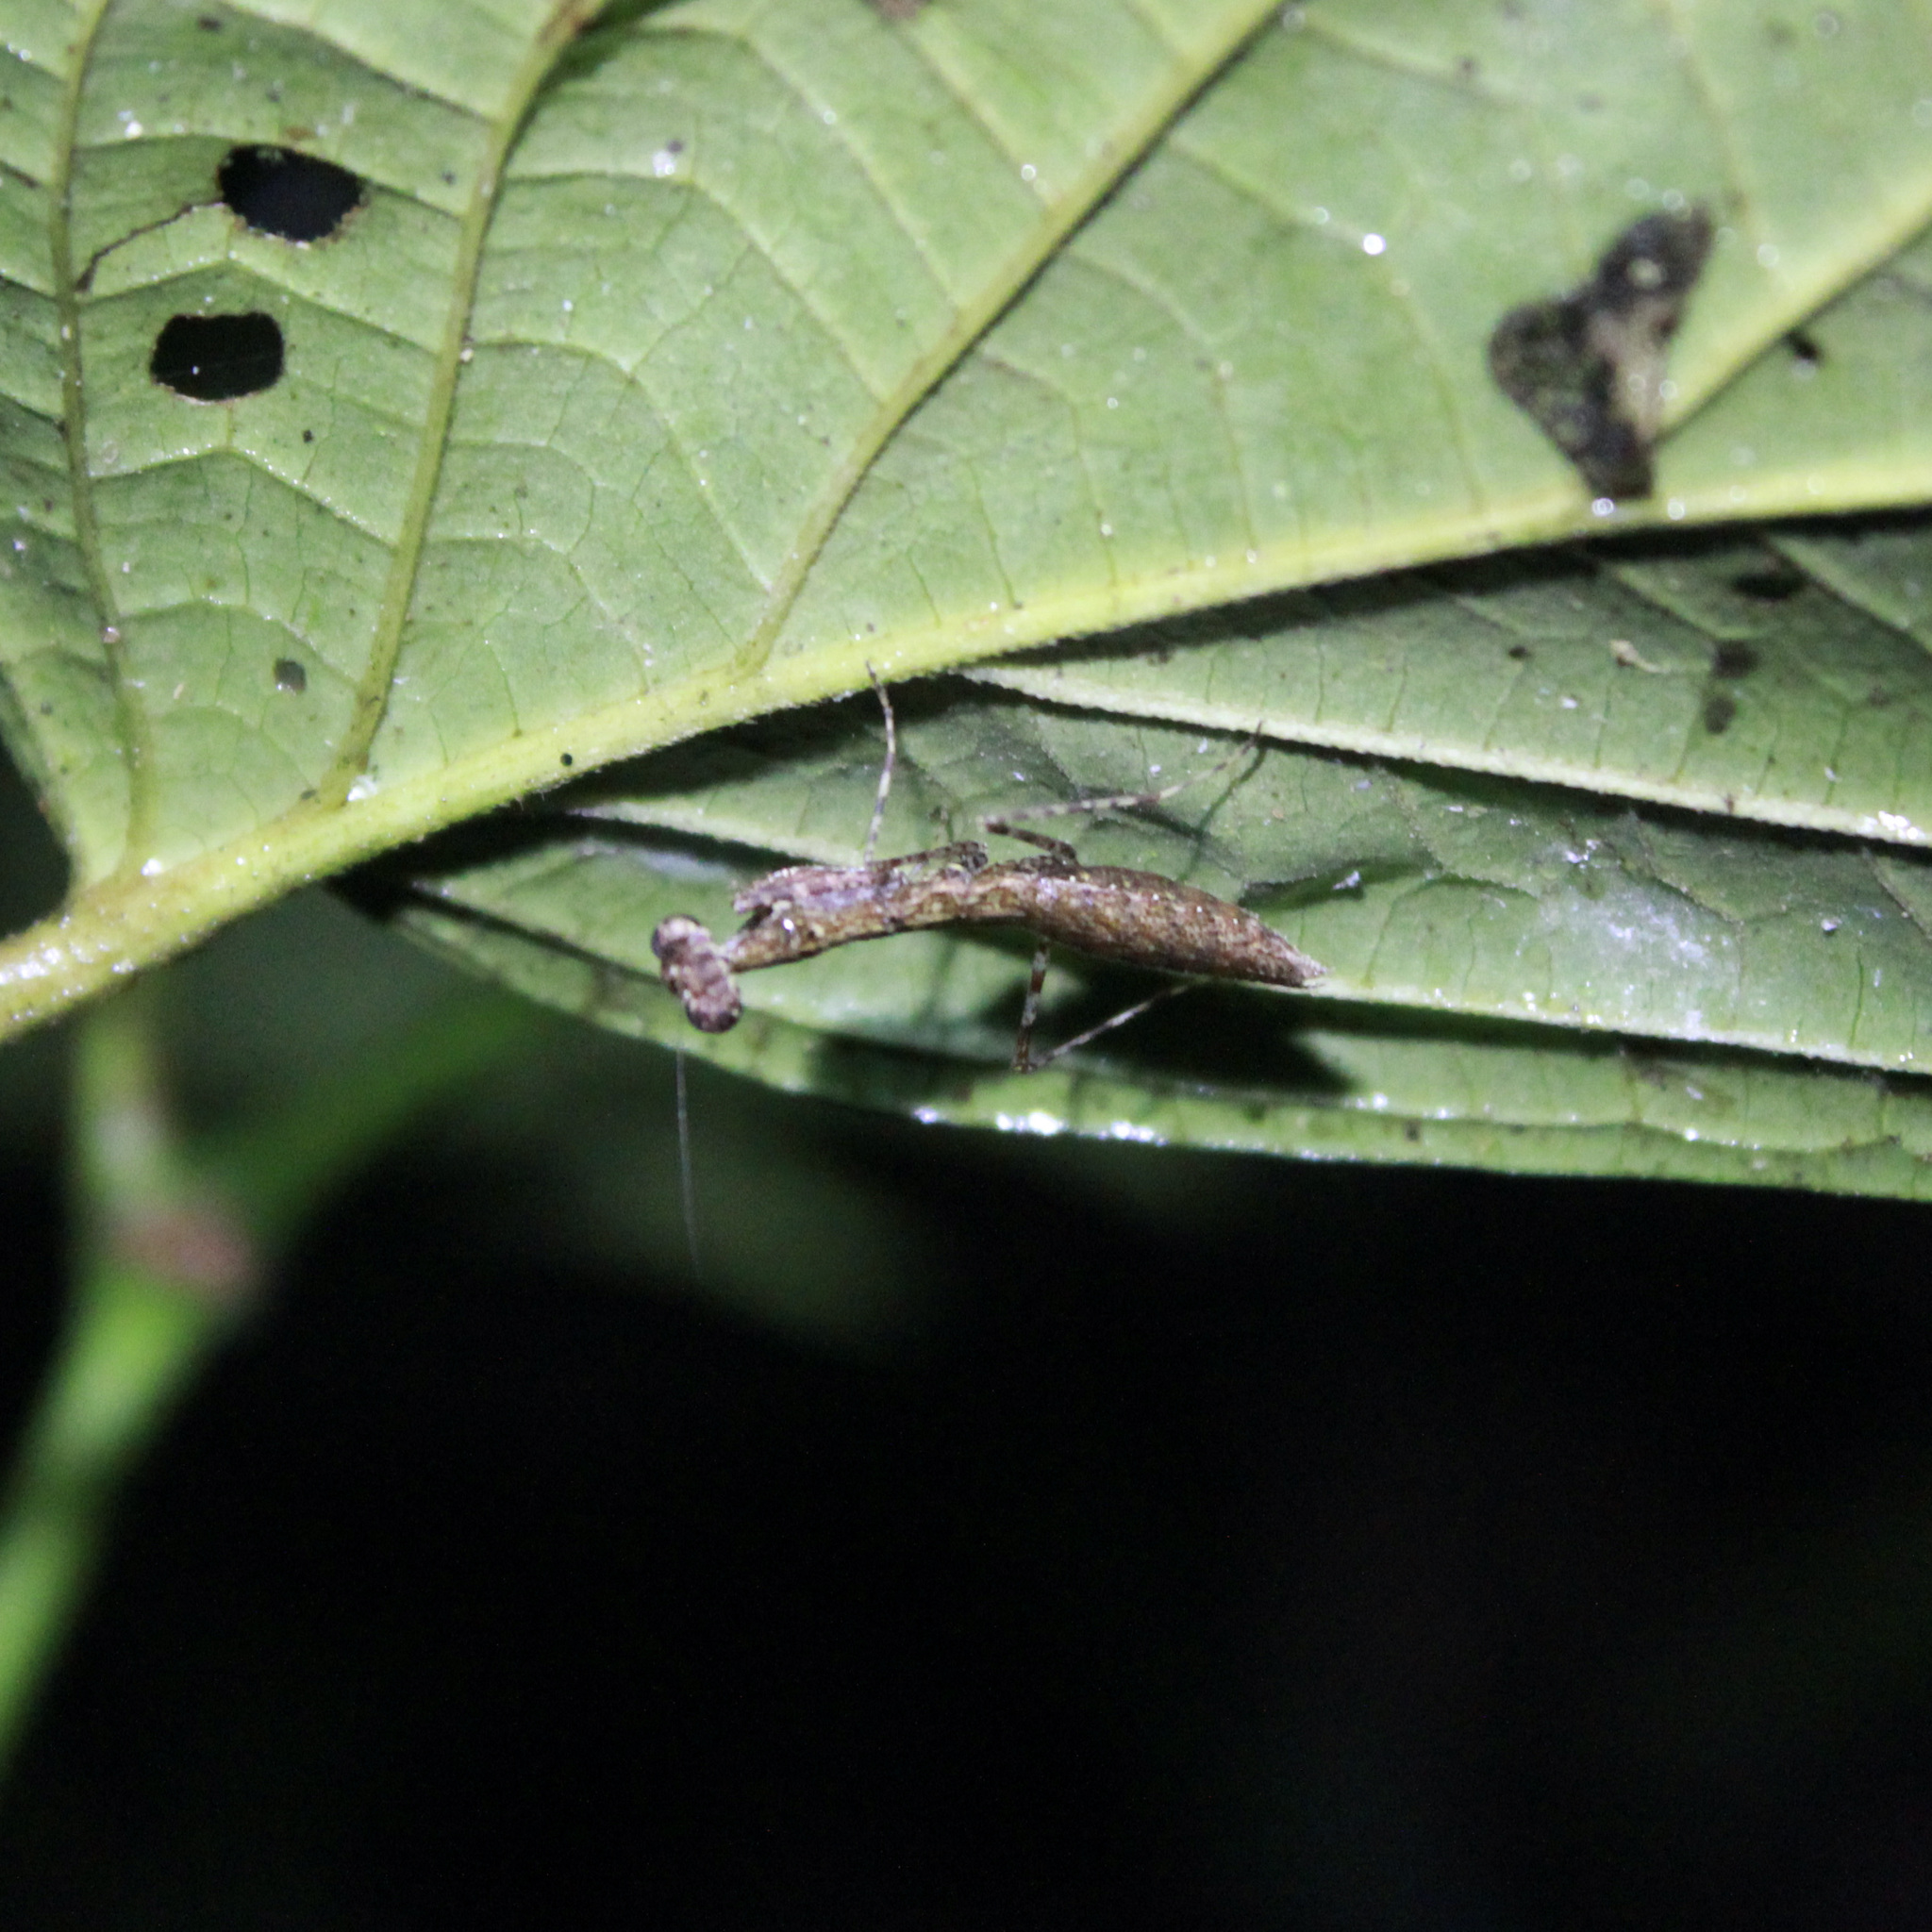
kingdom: Animalia
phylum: Arthropoda
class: Insecta
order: Mantodea
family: Thespidae
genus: Bantiella
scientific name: Bantiella trinitatis
